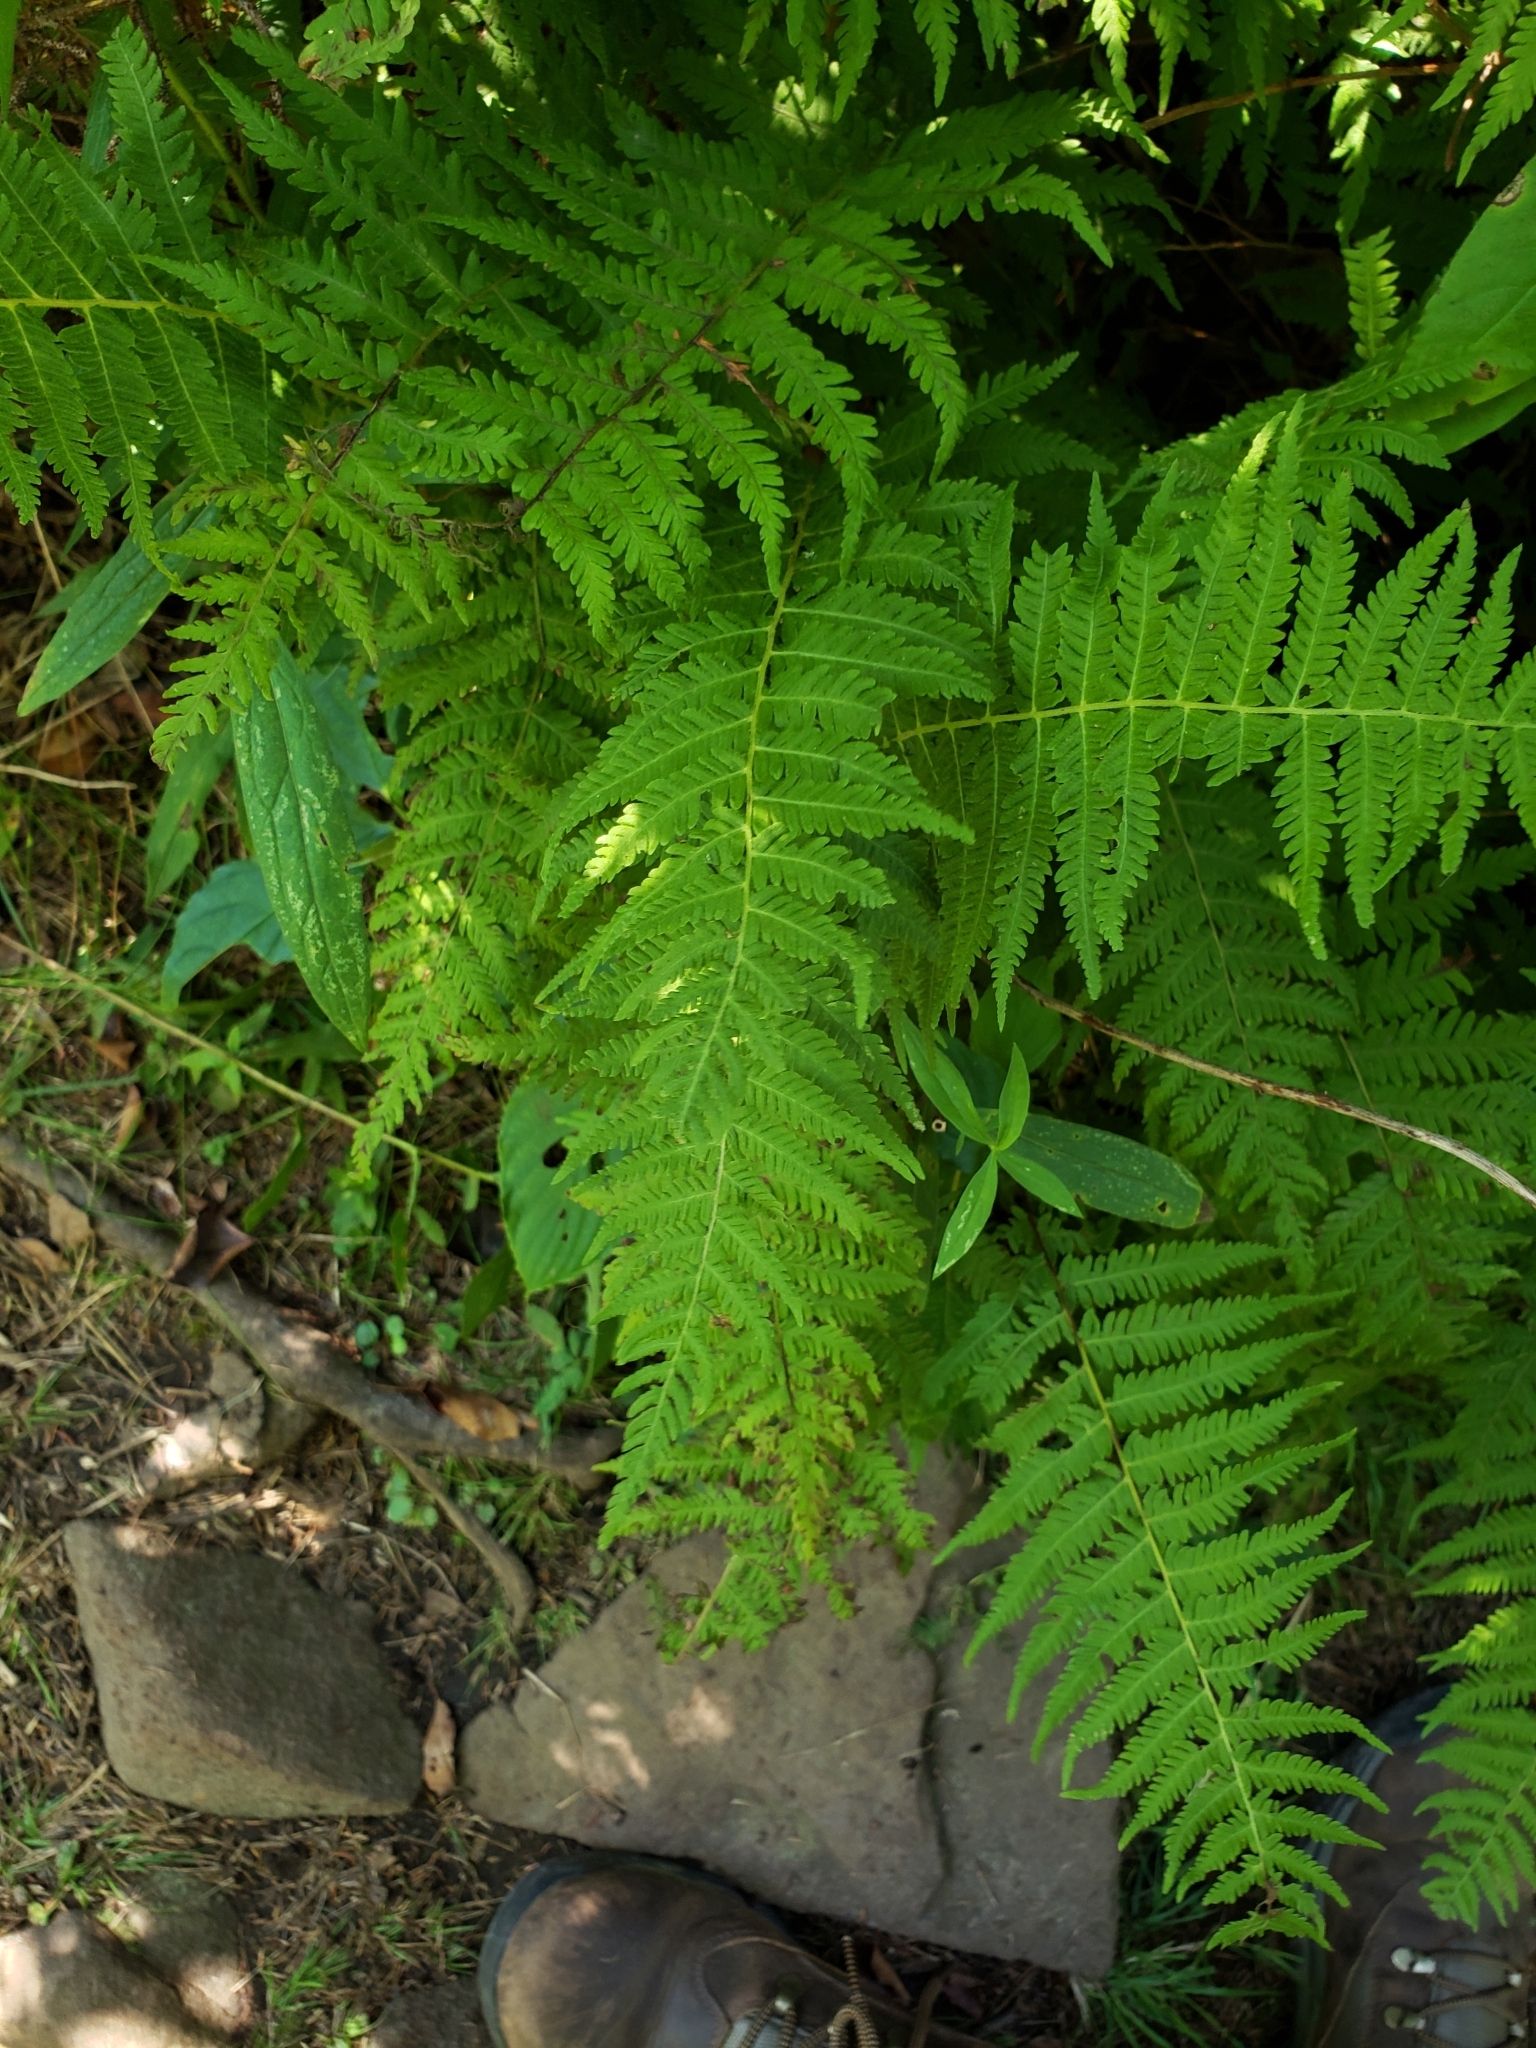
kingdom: Plantae
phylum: Tracheophyta
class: Polypodiopsida
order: Polypodiales
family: Thelypteridaceae
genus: Amauropelta
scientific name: Amauropelta noveboracensis
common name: New york fern
